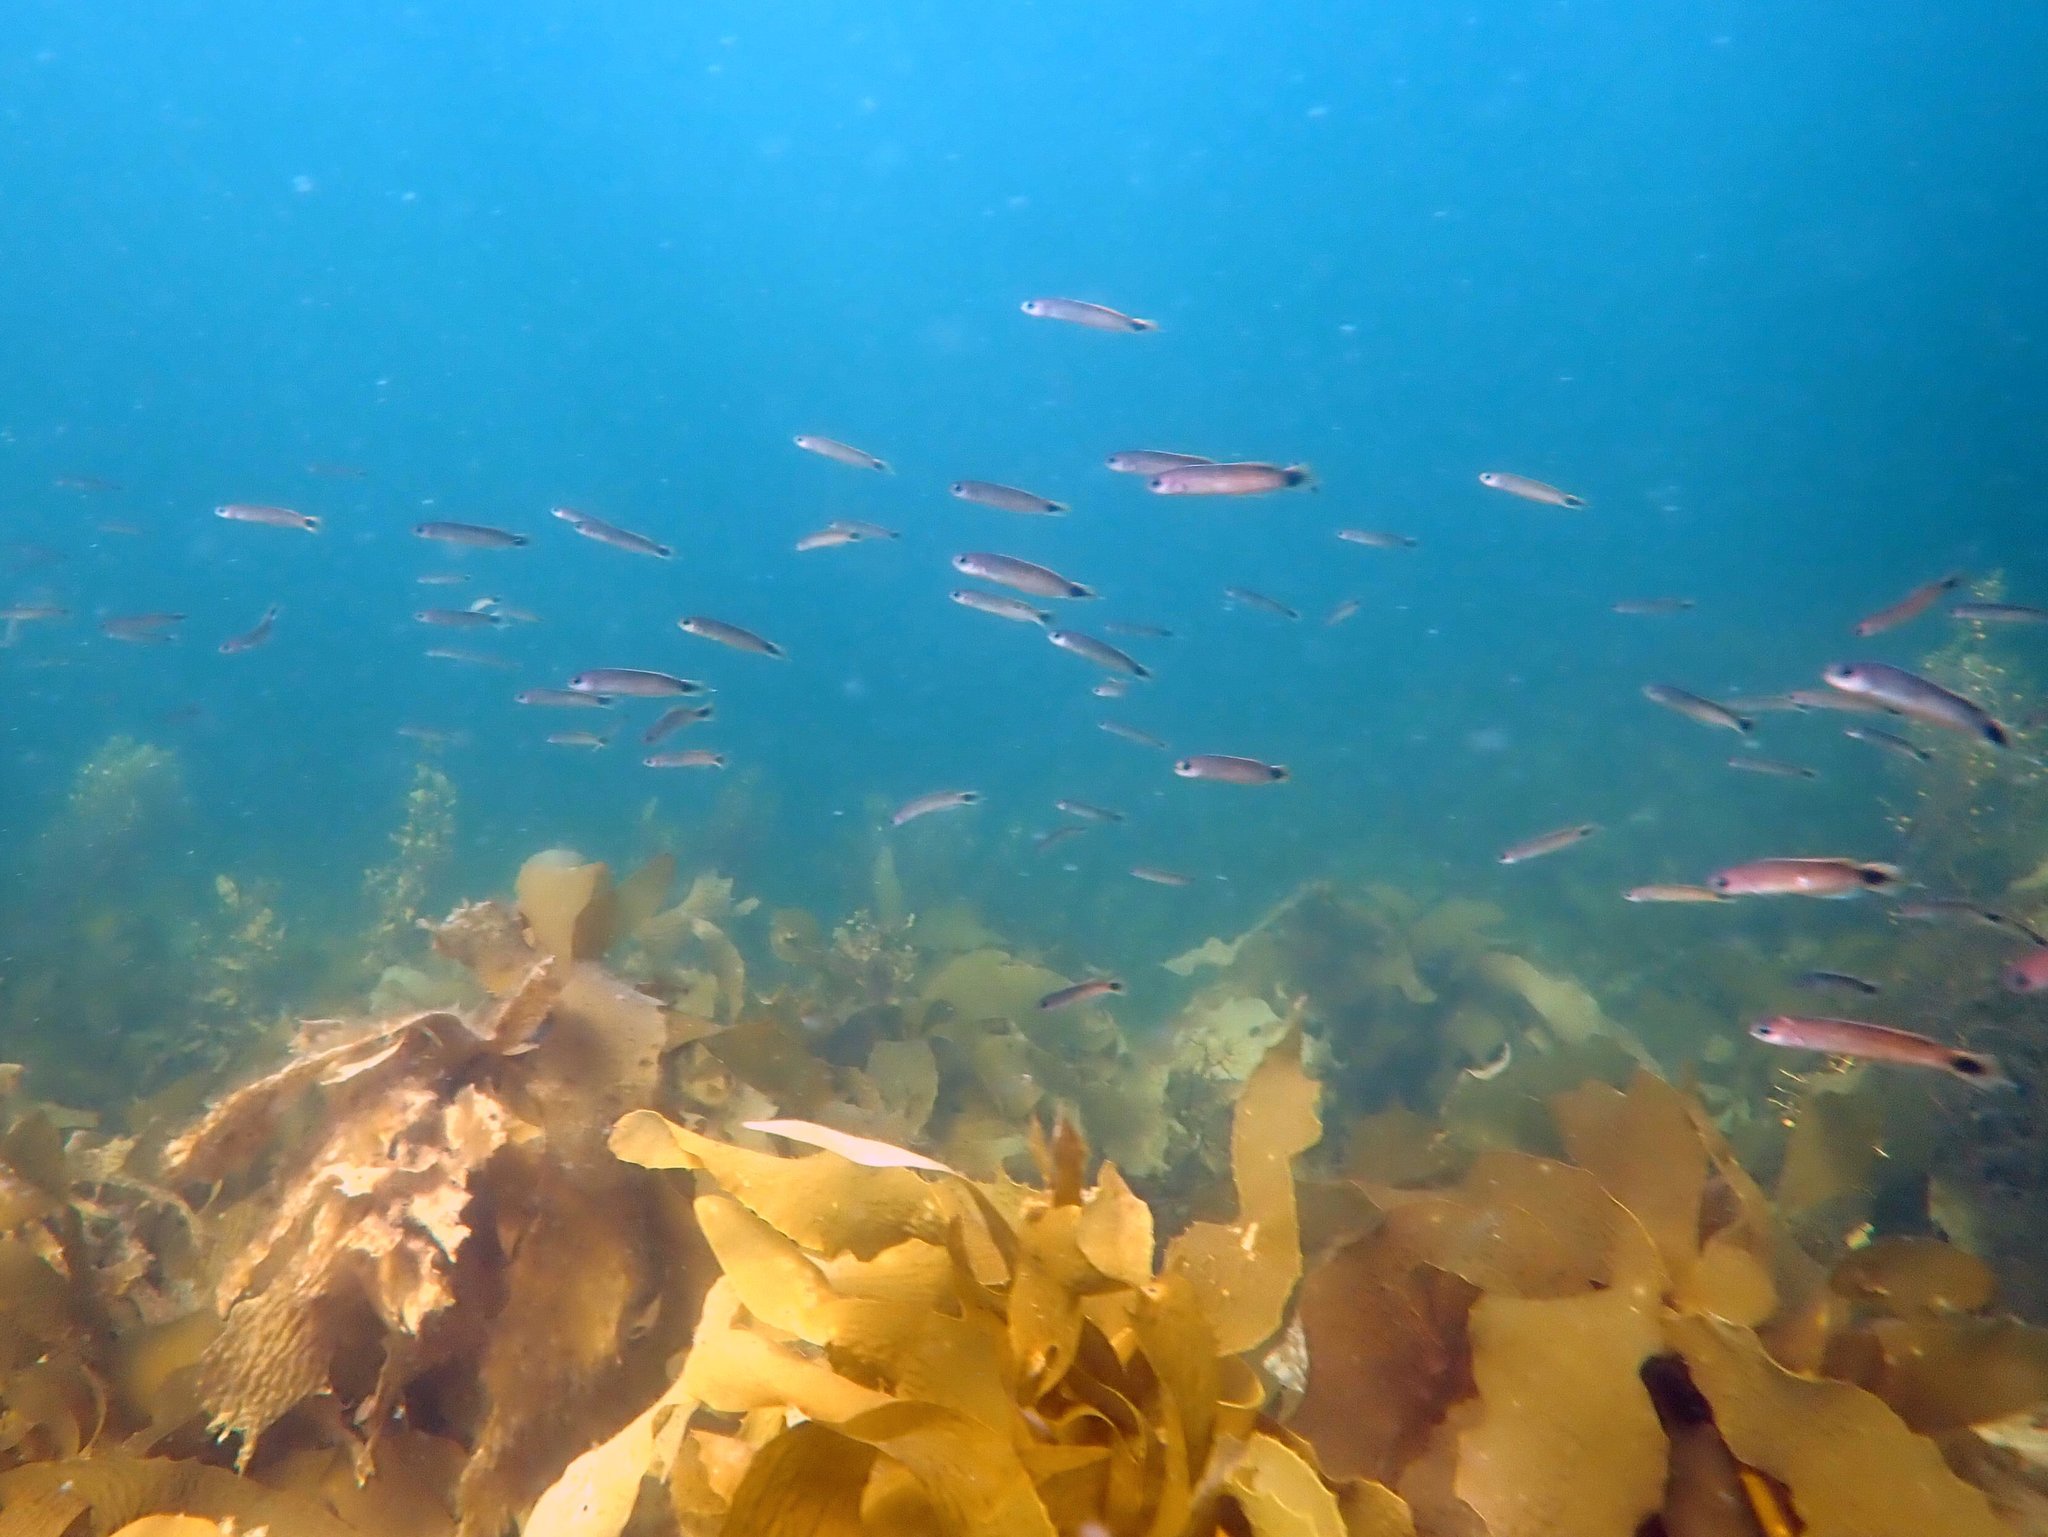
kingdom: Animalia
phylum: Chordata
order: Perciformes
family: Plesiopidae
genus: Trachinops
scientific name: Trachinops caudimaculatus
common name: Blotched-tailed trachinops
